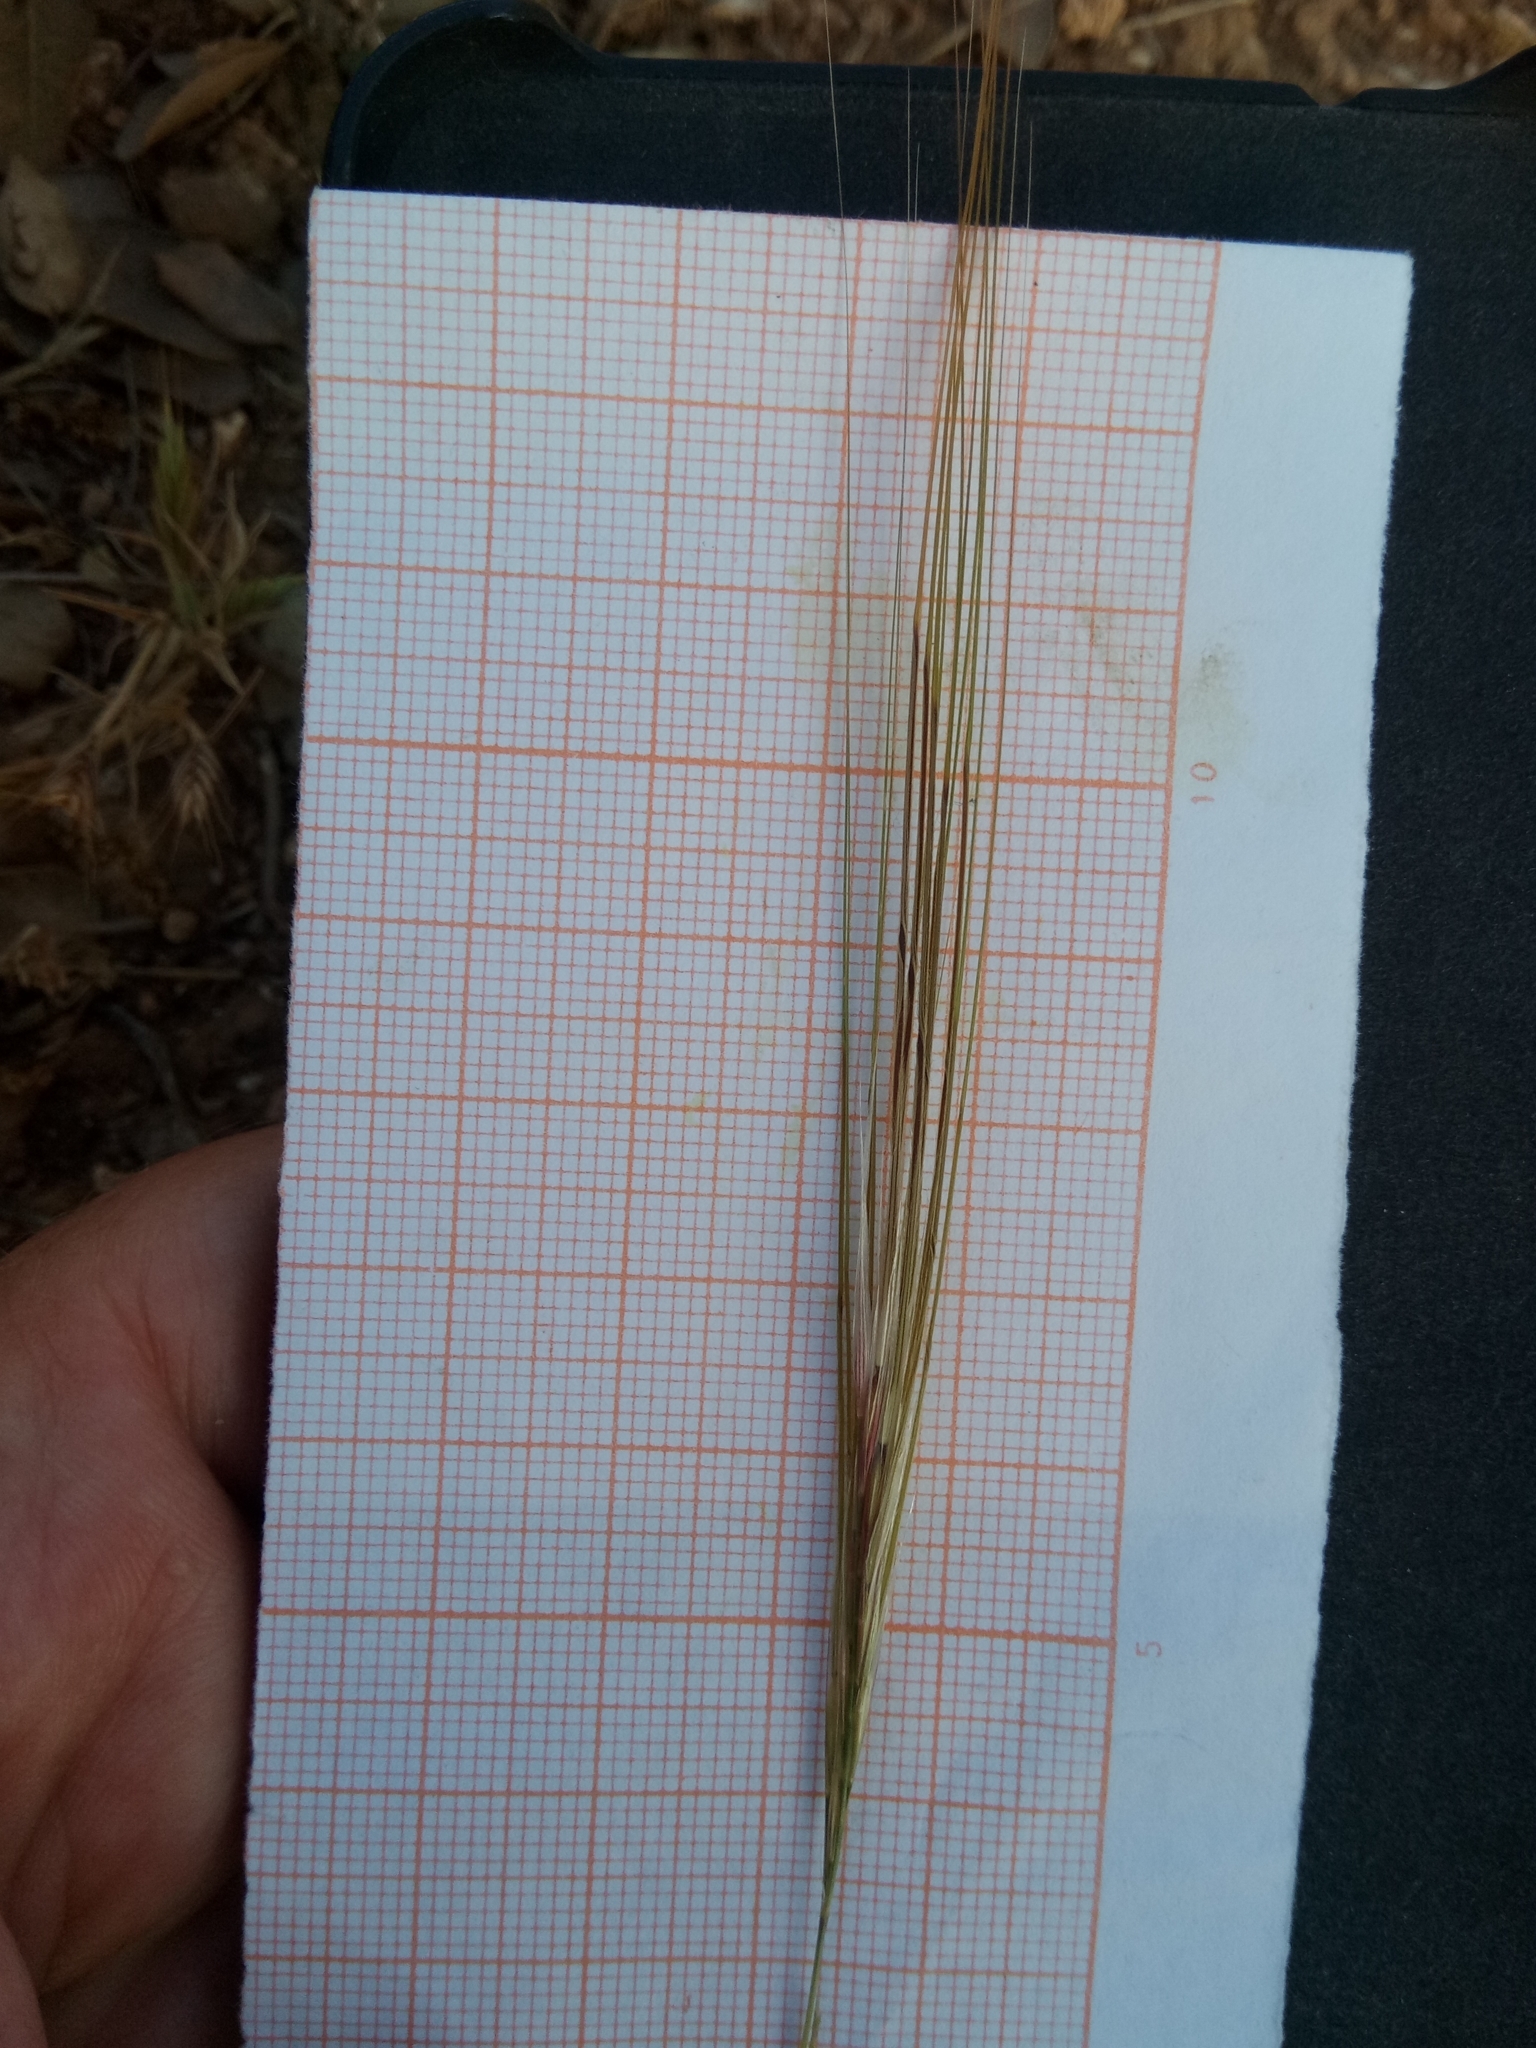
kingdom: Plantae
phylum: Tracheophyta
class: Liliopsida
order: Poales
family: Poaceae
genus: Stipellula
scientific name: Stipellula capensis
